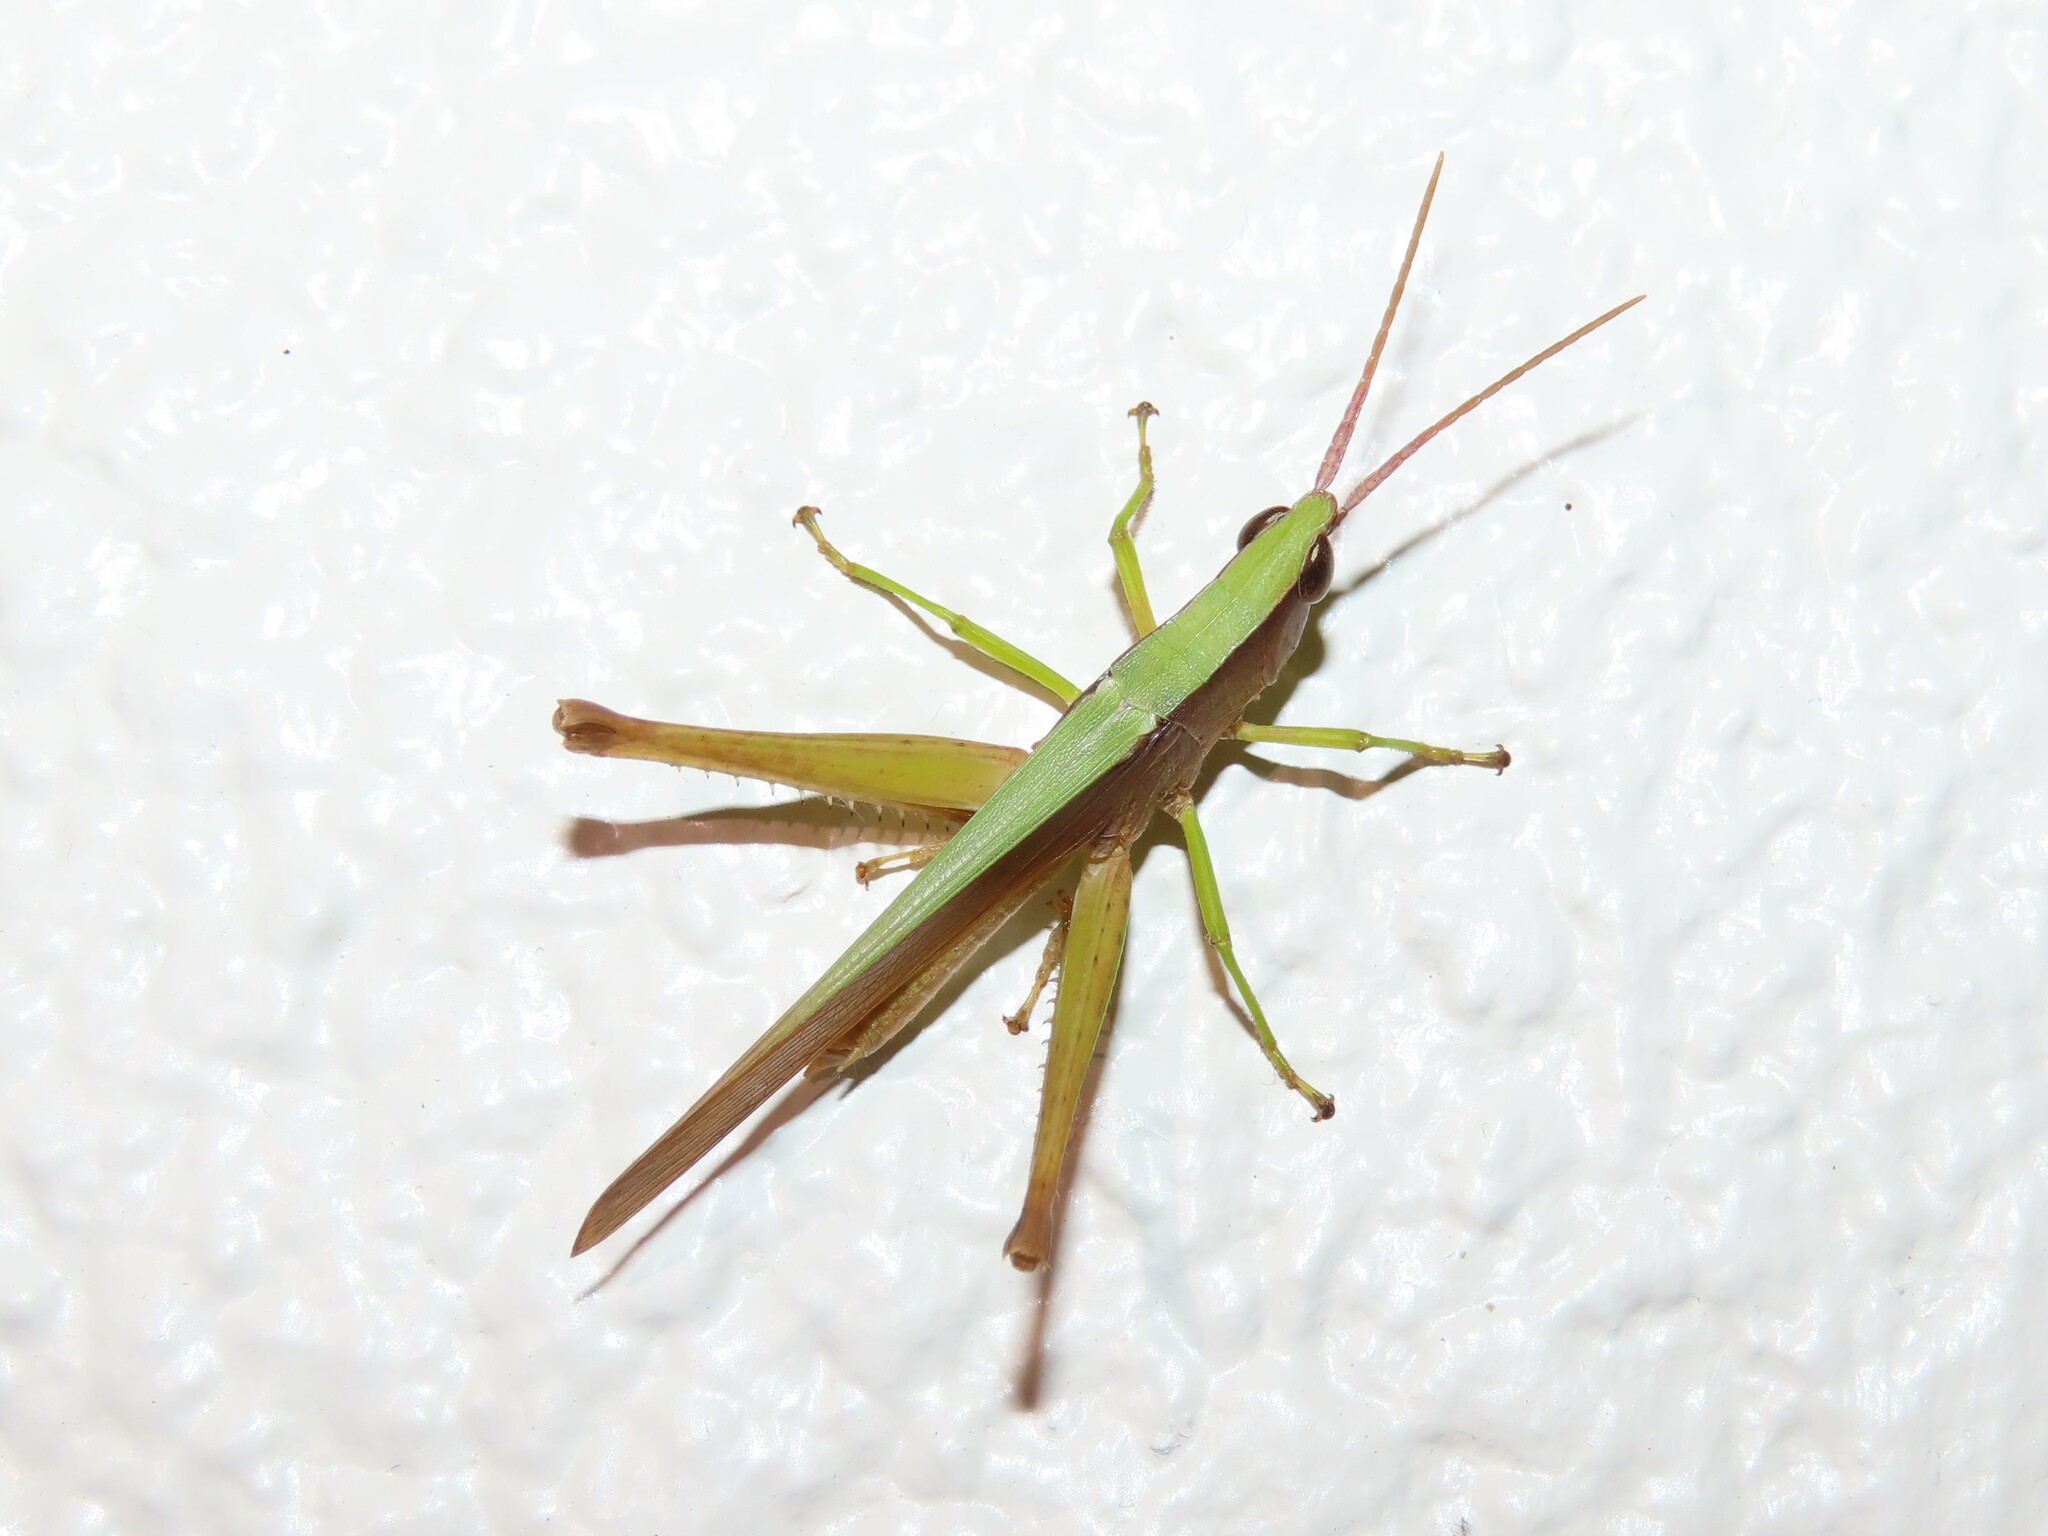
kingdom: Animalia
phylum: Arthropoda
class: Insecta
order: Orthoptera
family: Acrididae
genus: Metaleptea
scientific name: Metaleptea brevicornis
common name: Clipped-wing grasshopper
